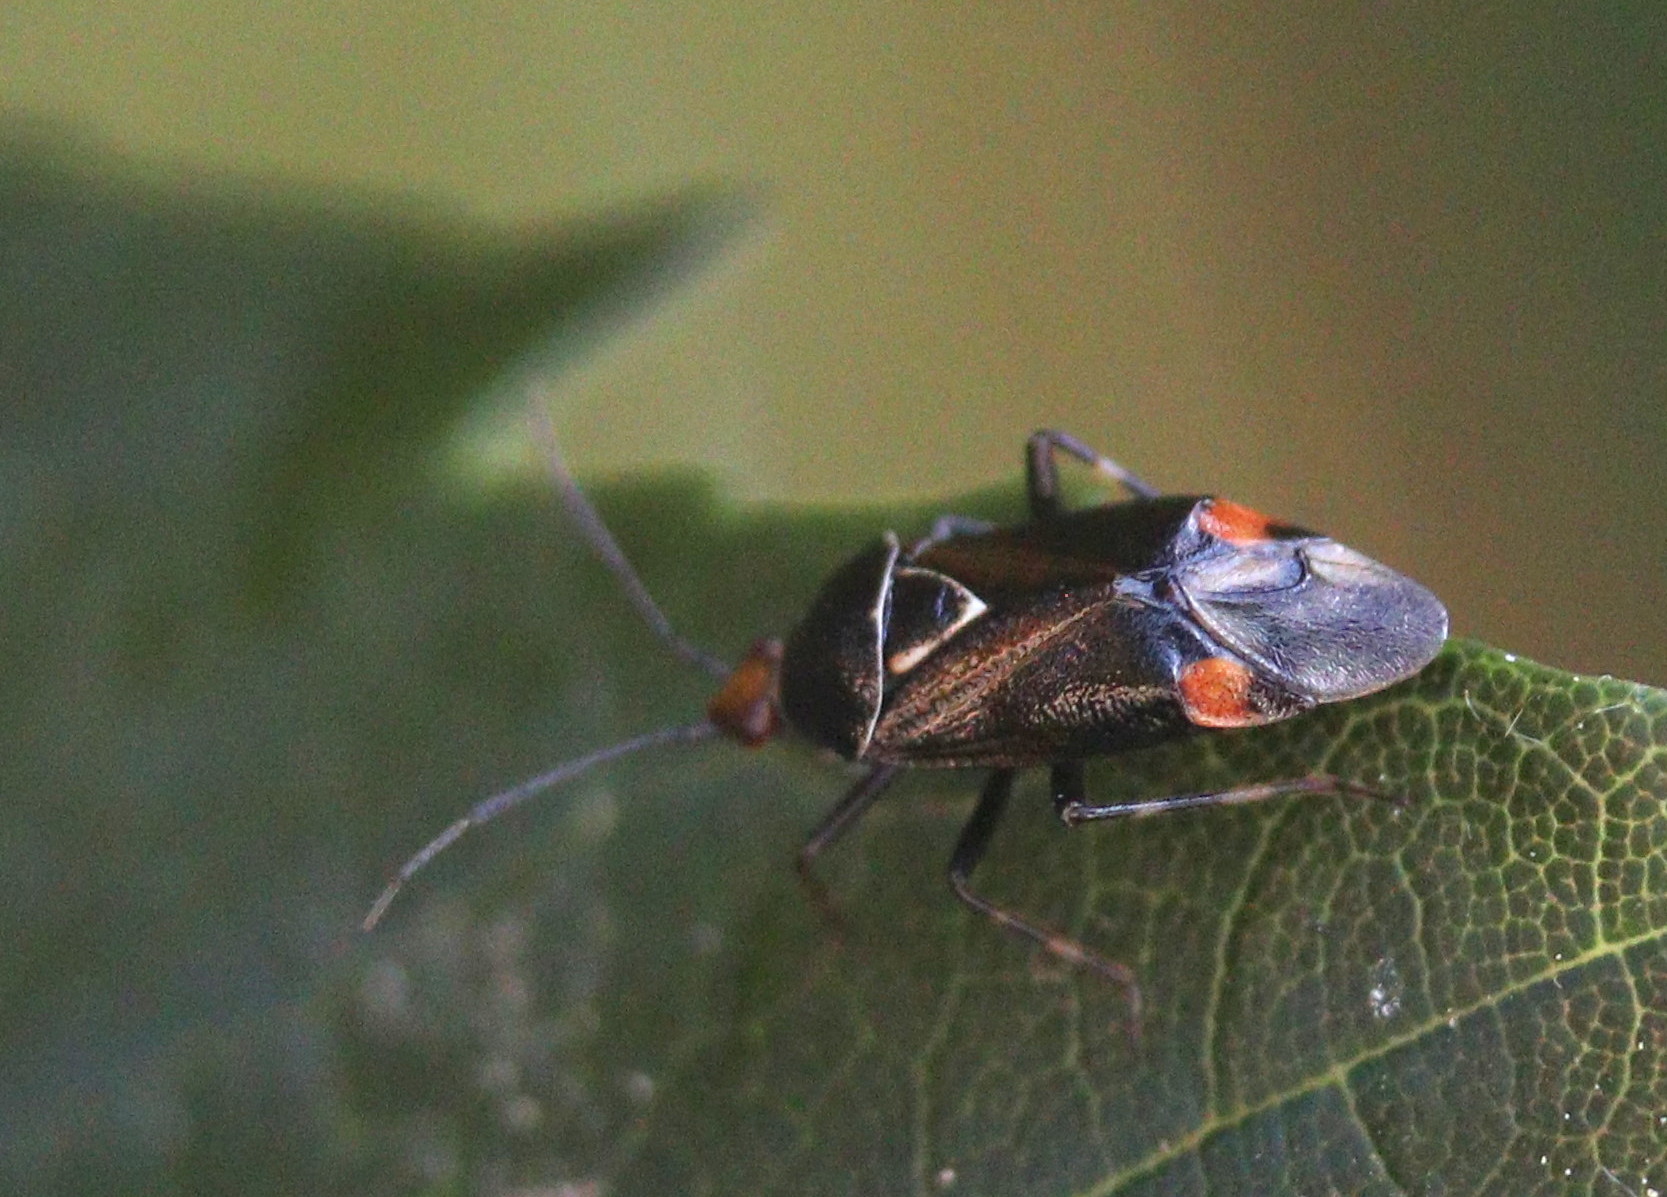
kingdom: Animalia
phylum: Arthropoda
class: Insecta
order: Hemiptera
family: Miridae
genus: Deraeocoris
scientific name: Deraeocoris flavilinea
